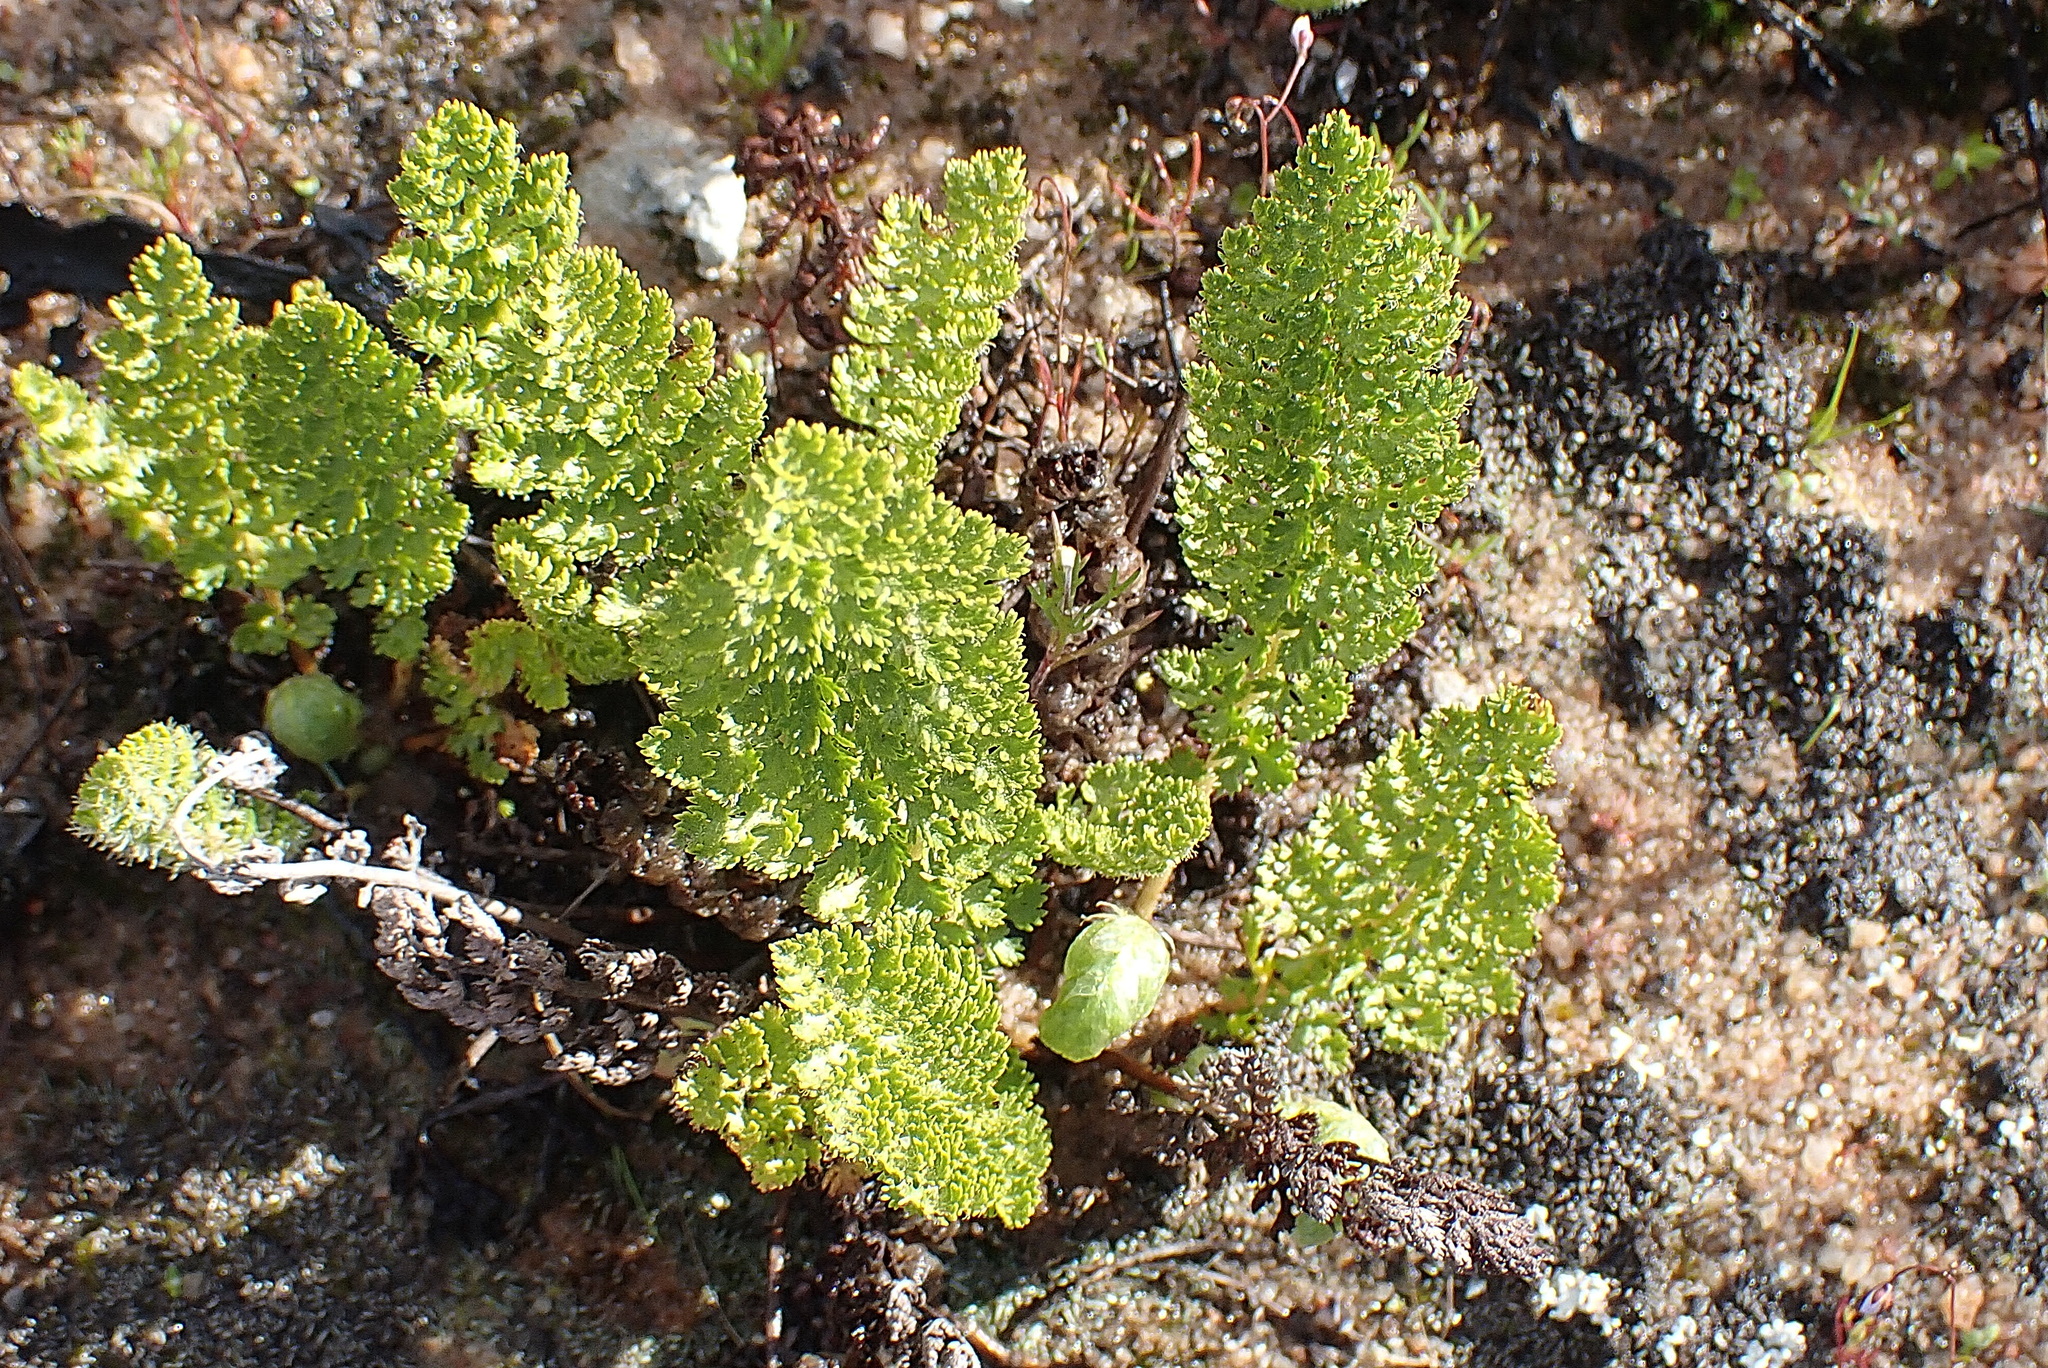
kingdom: Plantae
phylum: Tracheophyta
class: Polypodiopsida
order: Schizaeales
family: Anemiaceae
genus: Anemia
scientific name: Anemia caffrorum
